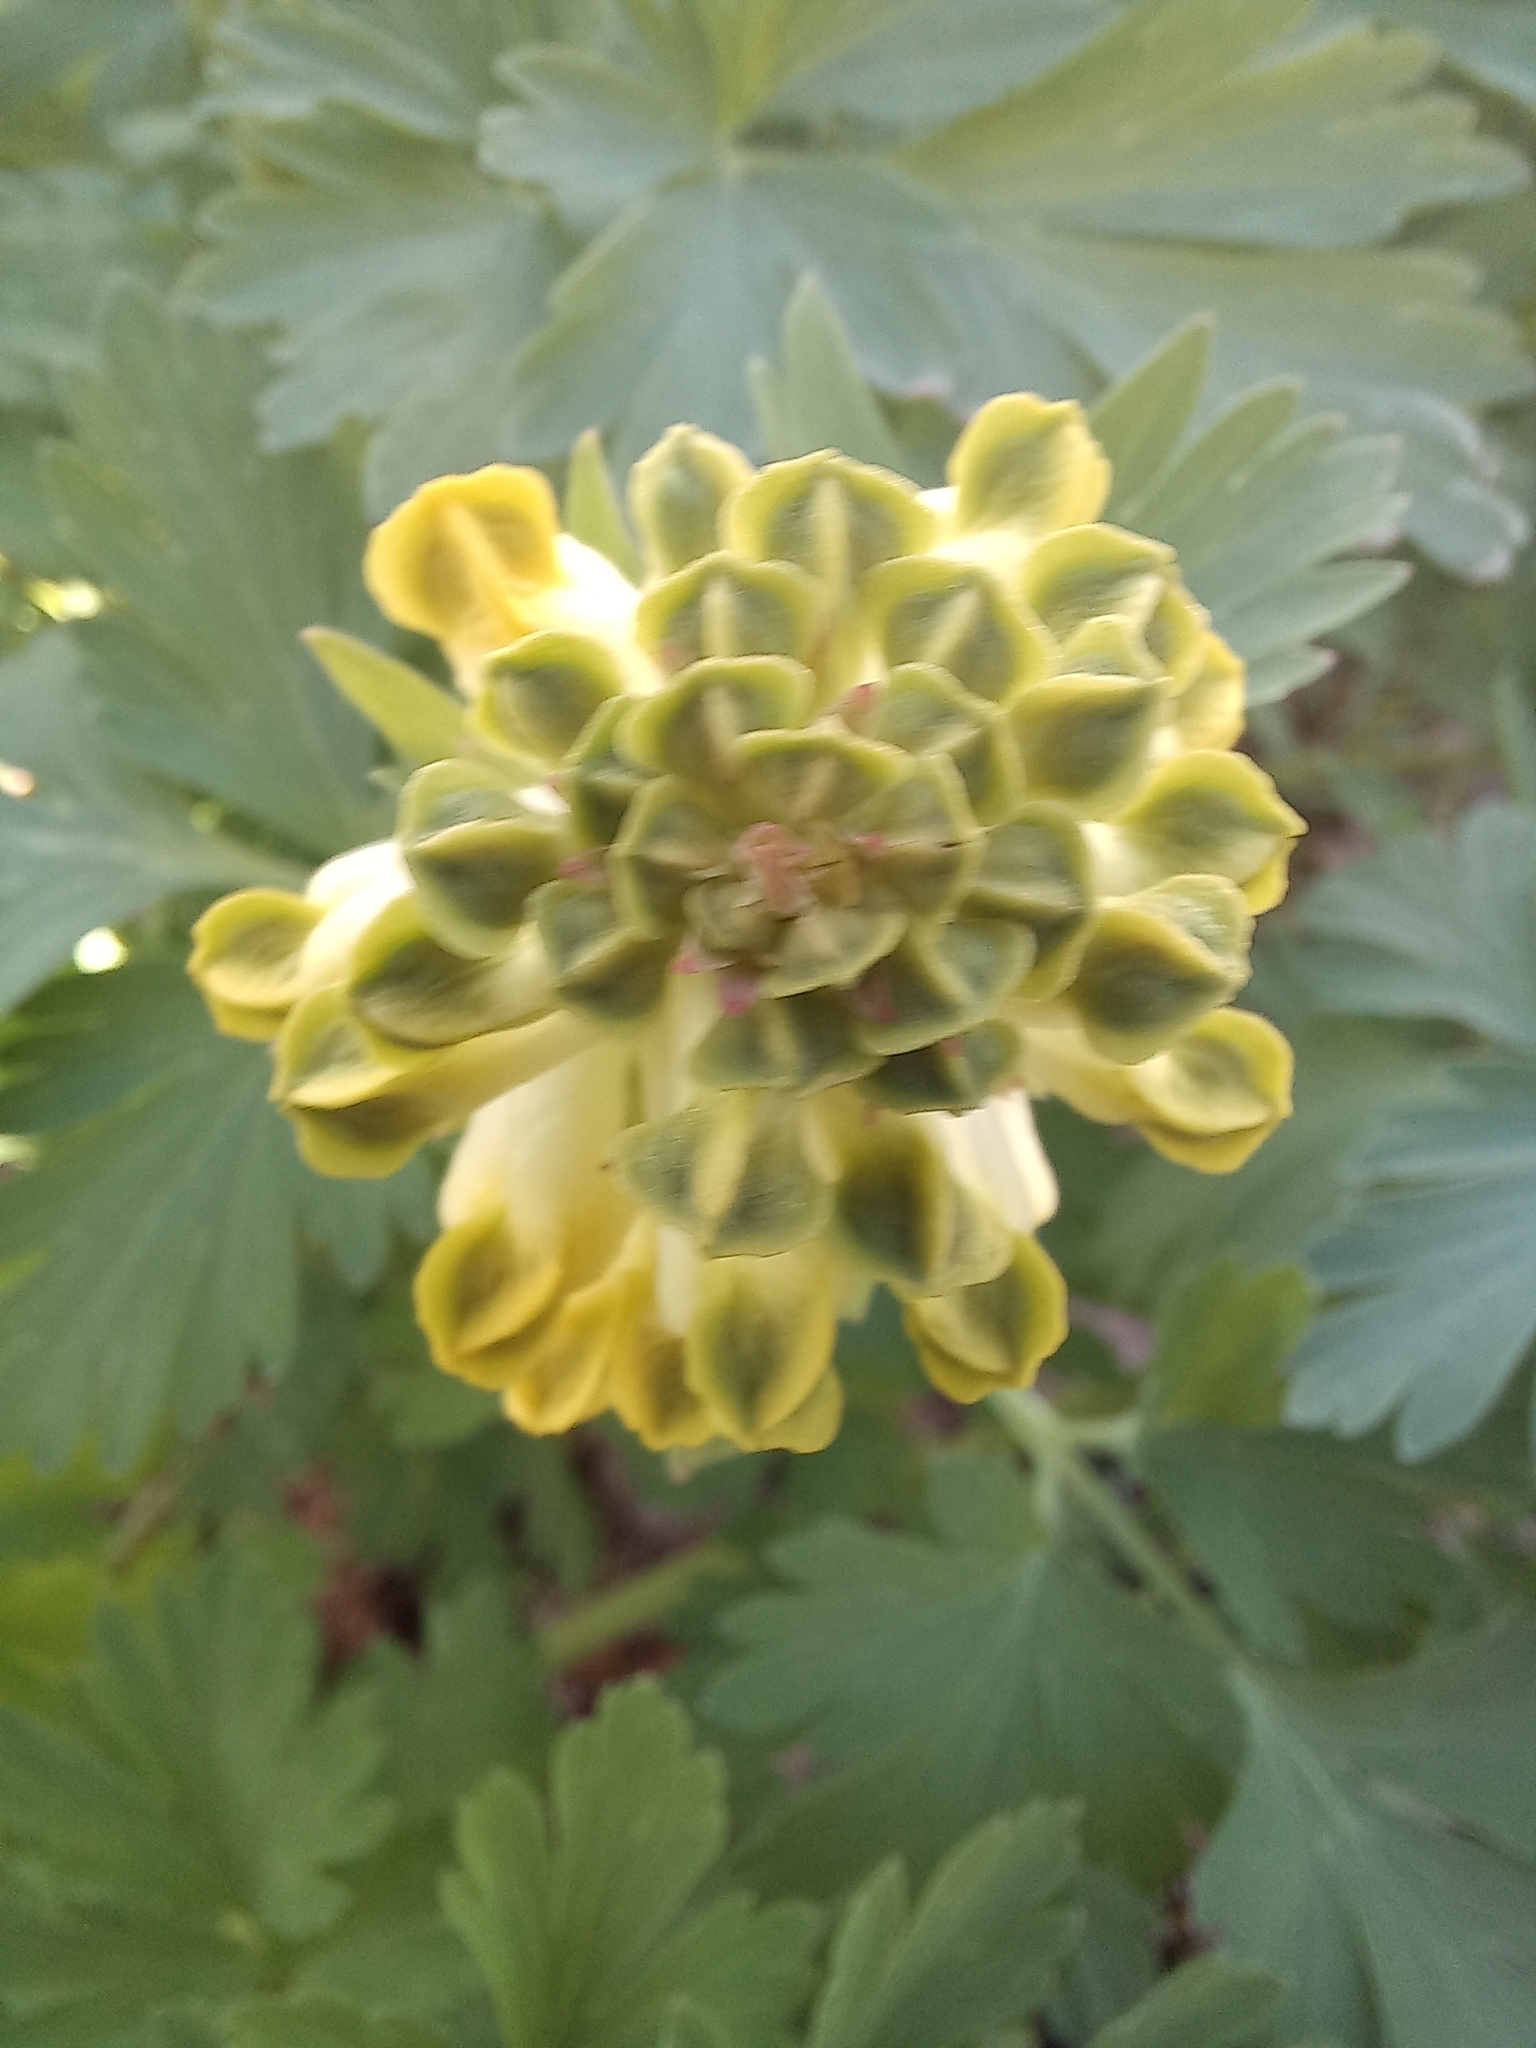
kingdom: Plantae
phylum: Tracheophyta
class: Magnoliopsida
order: Ranunculales
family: Papaveraceae
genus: Corydalis
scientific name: Corydalis nobilis
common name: Siberian corydalis
